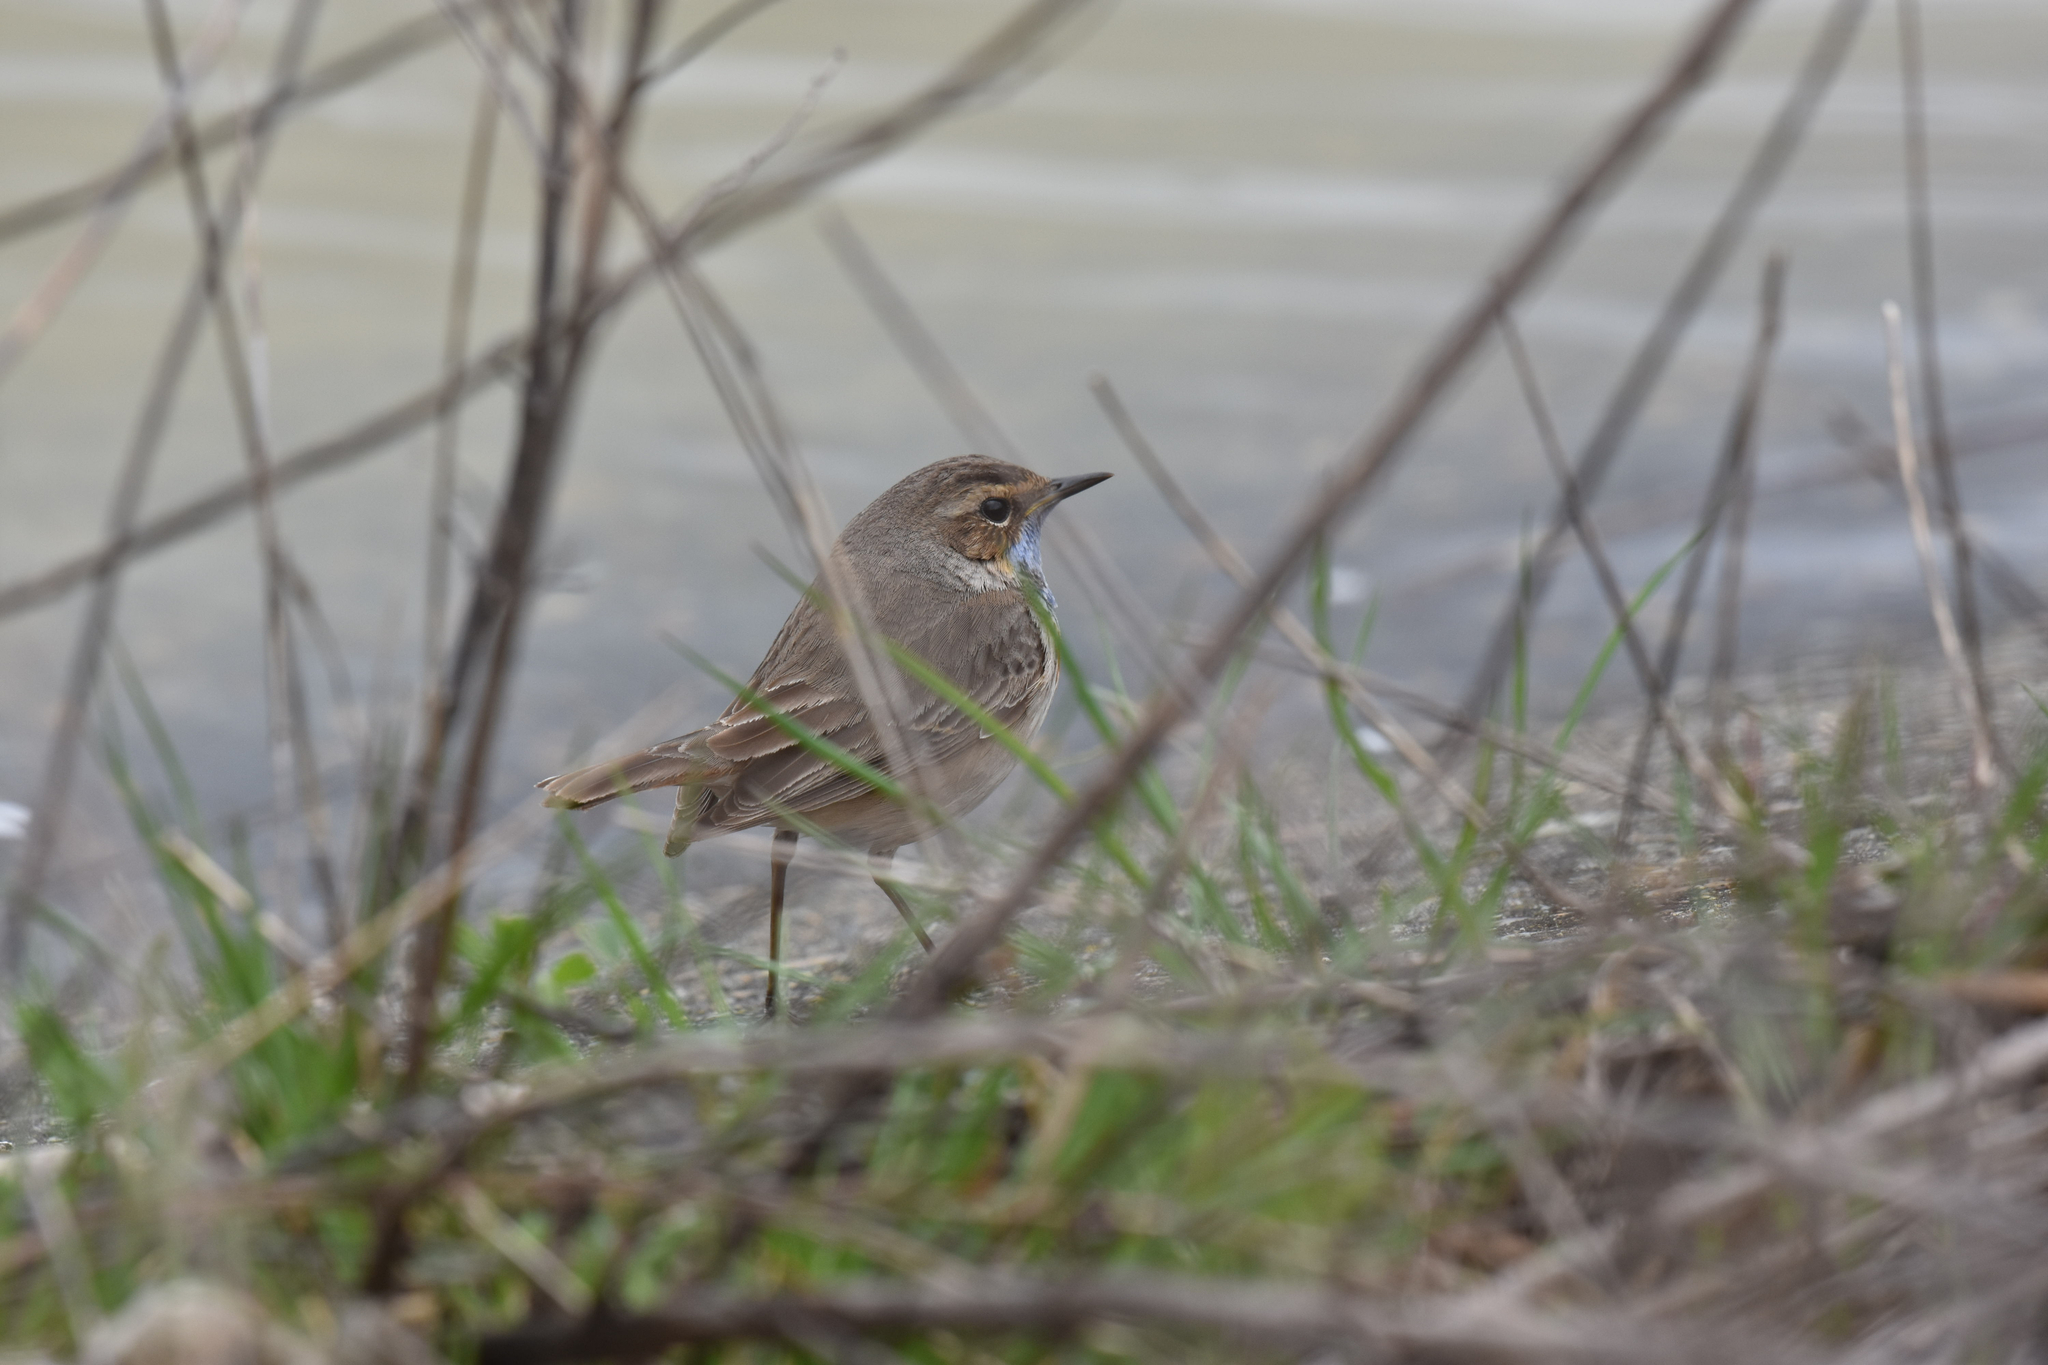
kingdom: Animalia
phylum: Chordata
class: Aves
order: Passeriformes
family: Muscicapidae
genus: Luscinia
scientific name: Luscinia svecica
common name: Bluethroat
